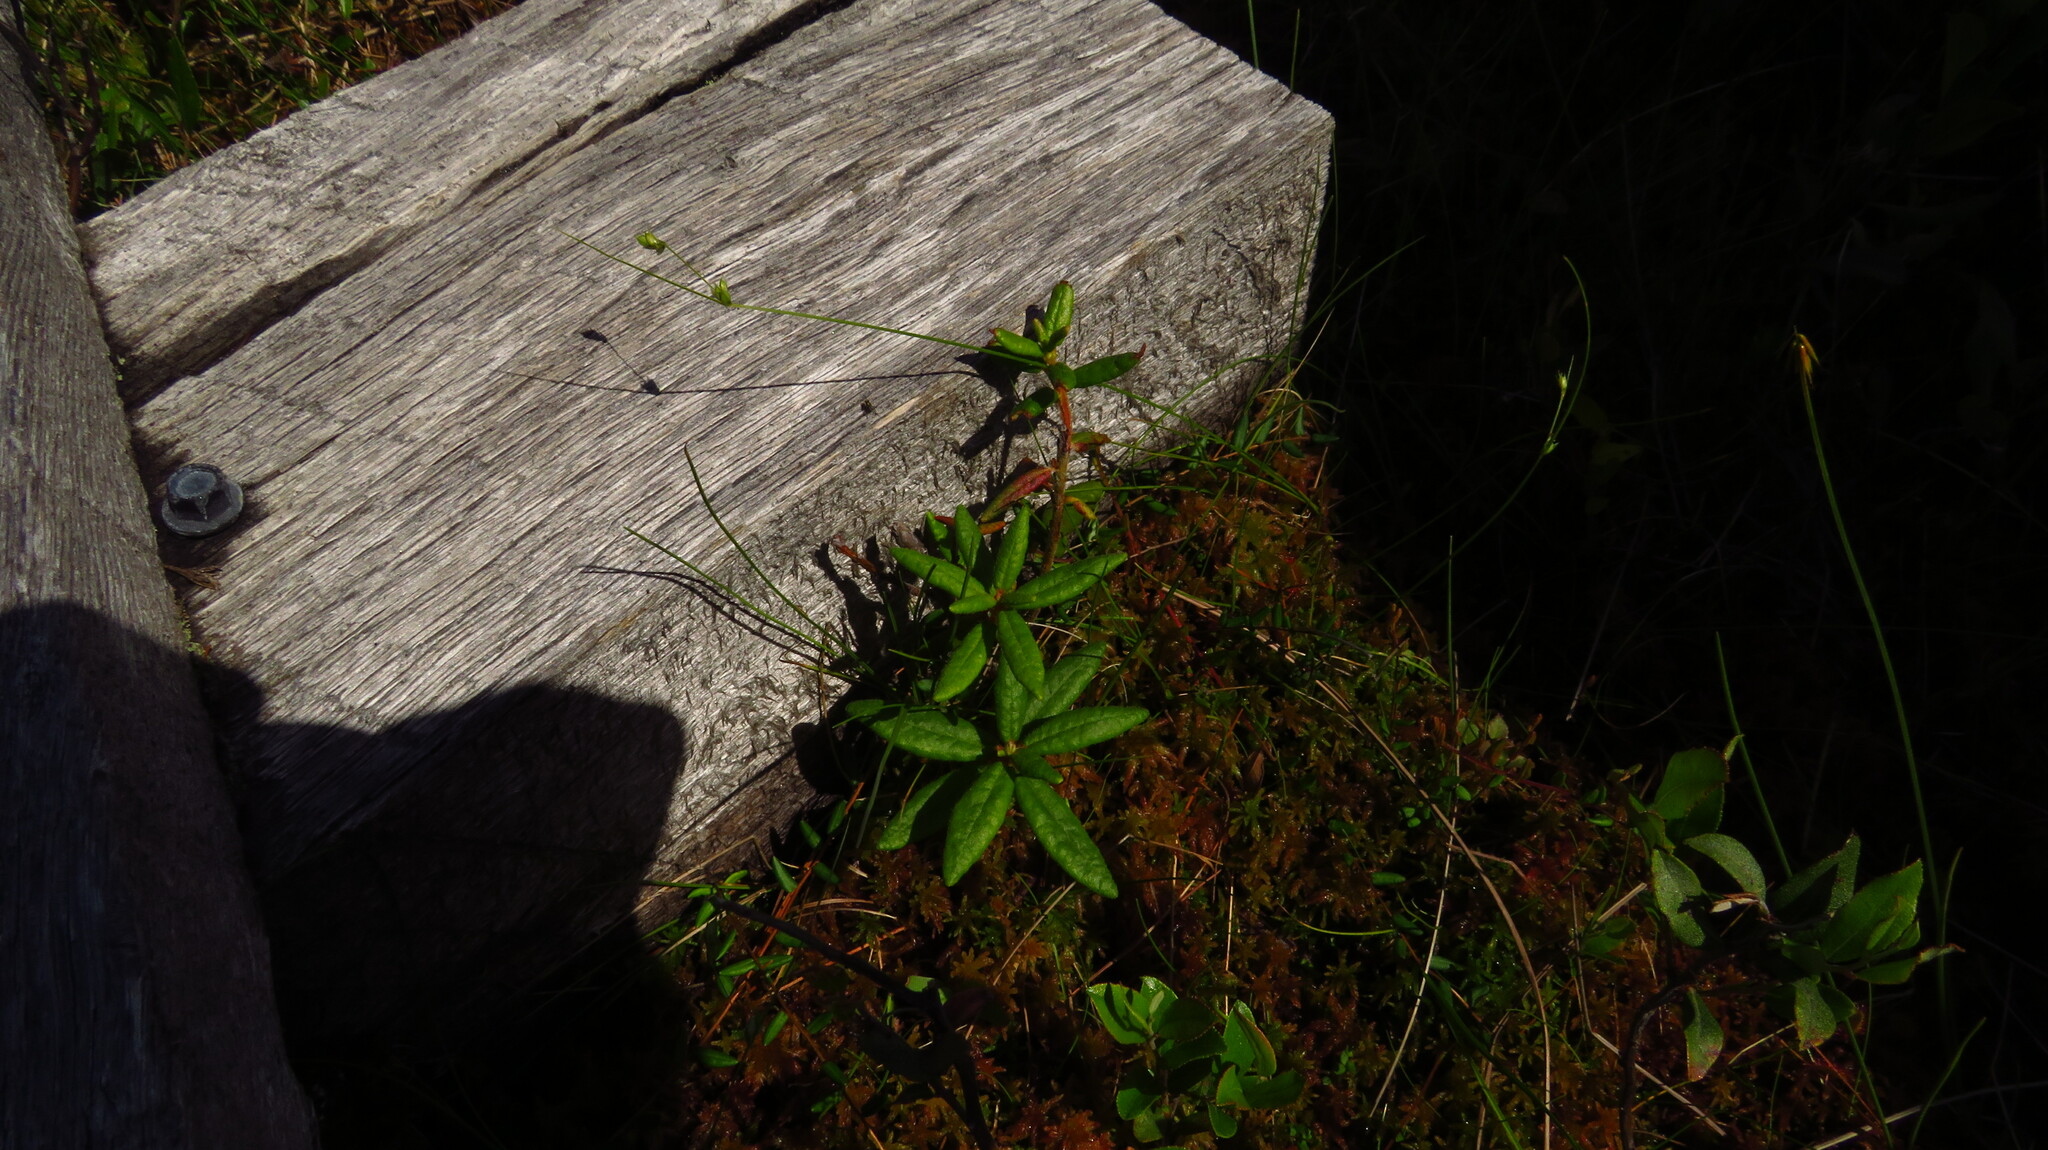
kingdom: Plantae
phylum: Tracheophyta
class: Liliopsida
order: Poales
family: Cyperaceae
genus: Carex
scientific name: Carex trisperma
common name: Three-seeded sedge
